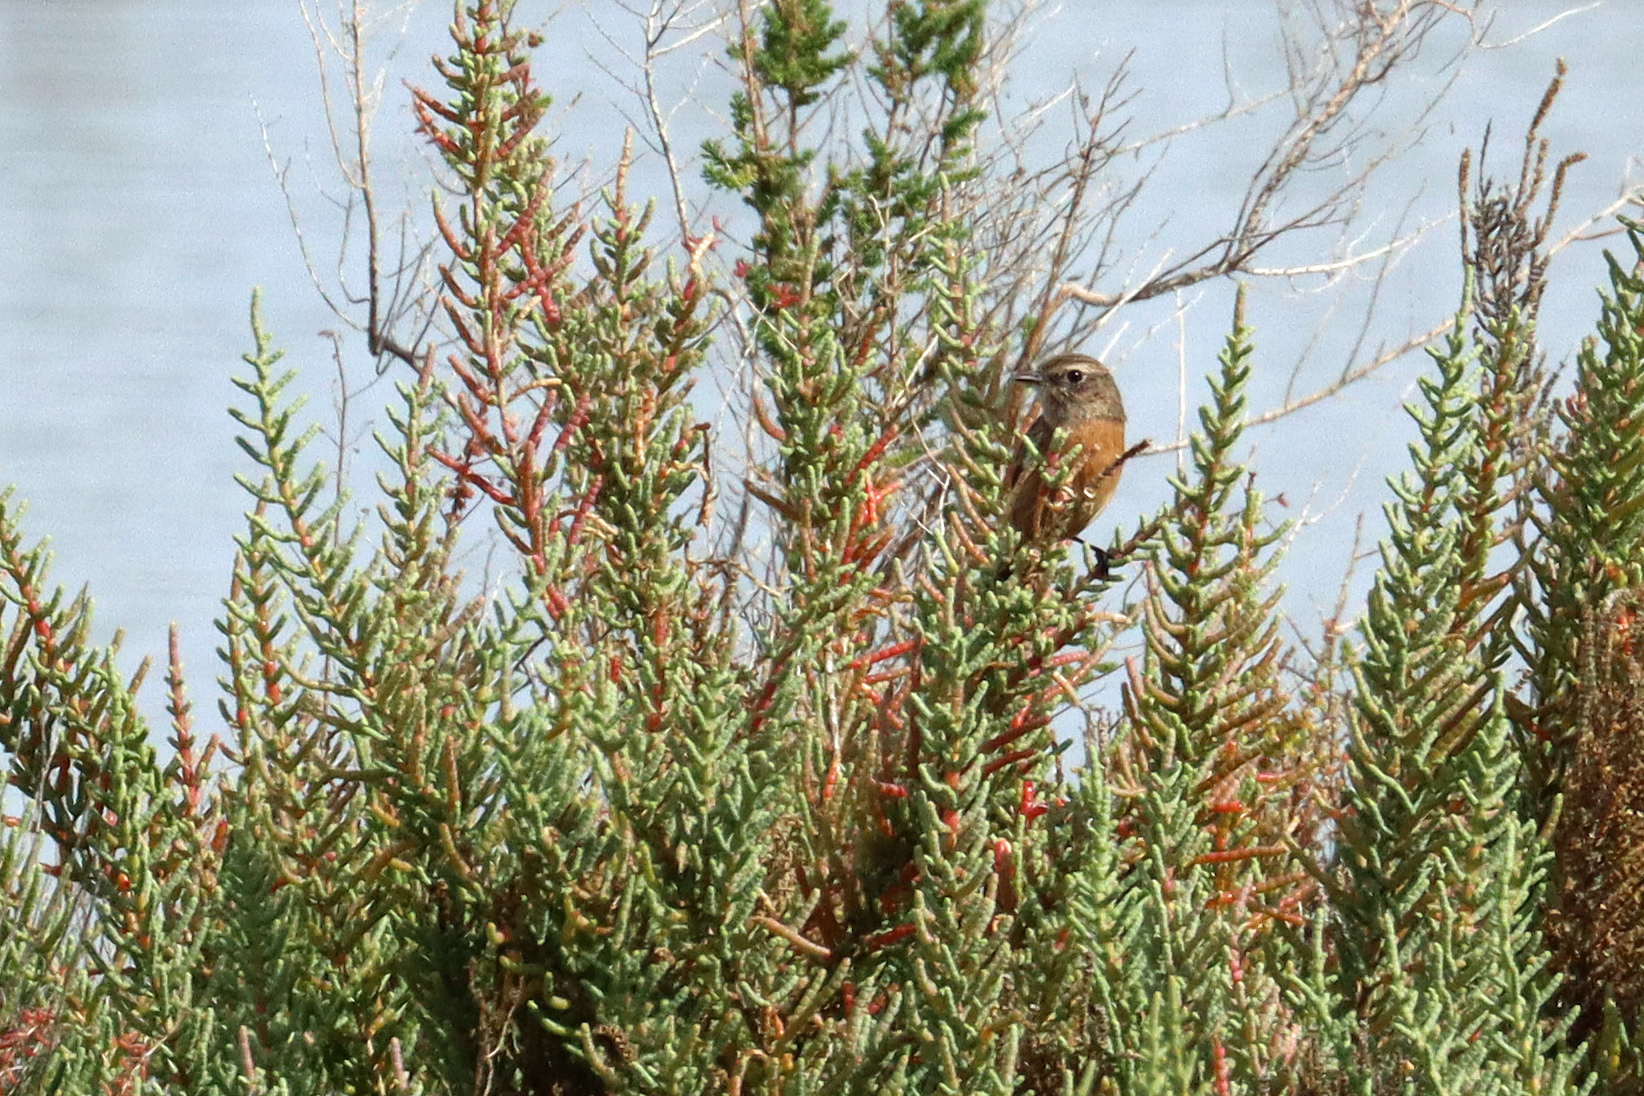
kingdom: Animalia
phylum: Chordata
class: Aves
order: Passeriformes
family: Muscicapidae
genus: Saxicola
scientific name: Saxicola rubicola
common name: European stonechat
